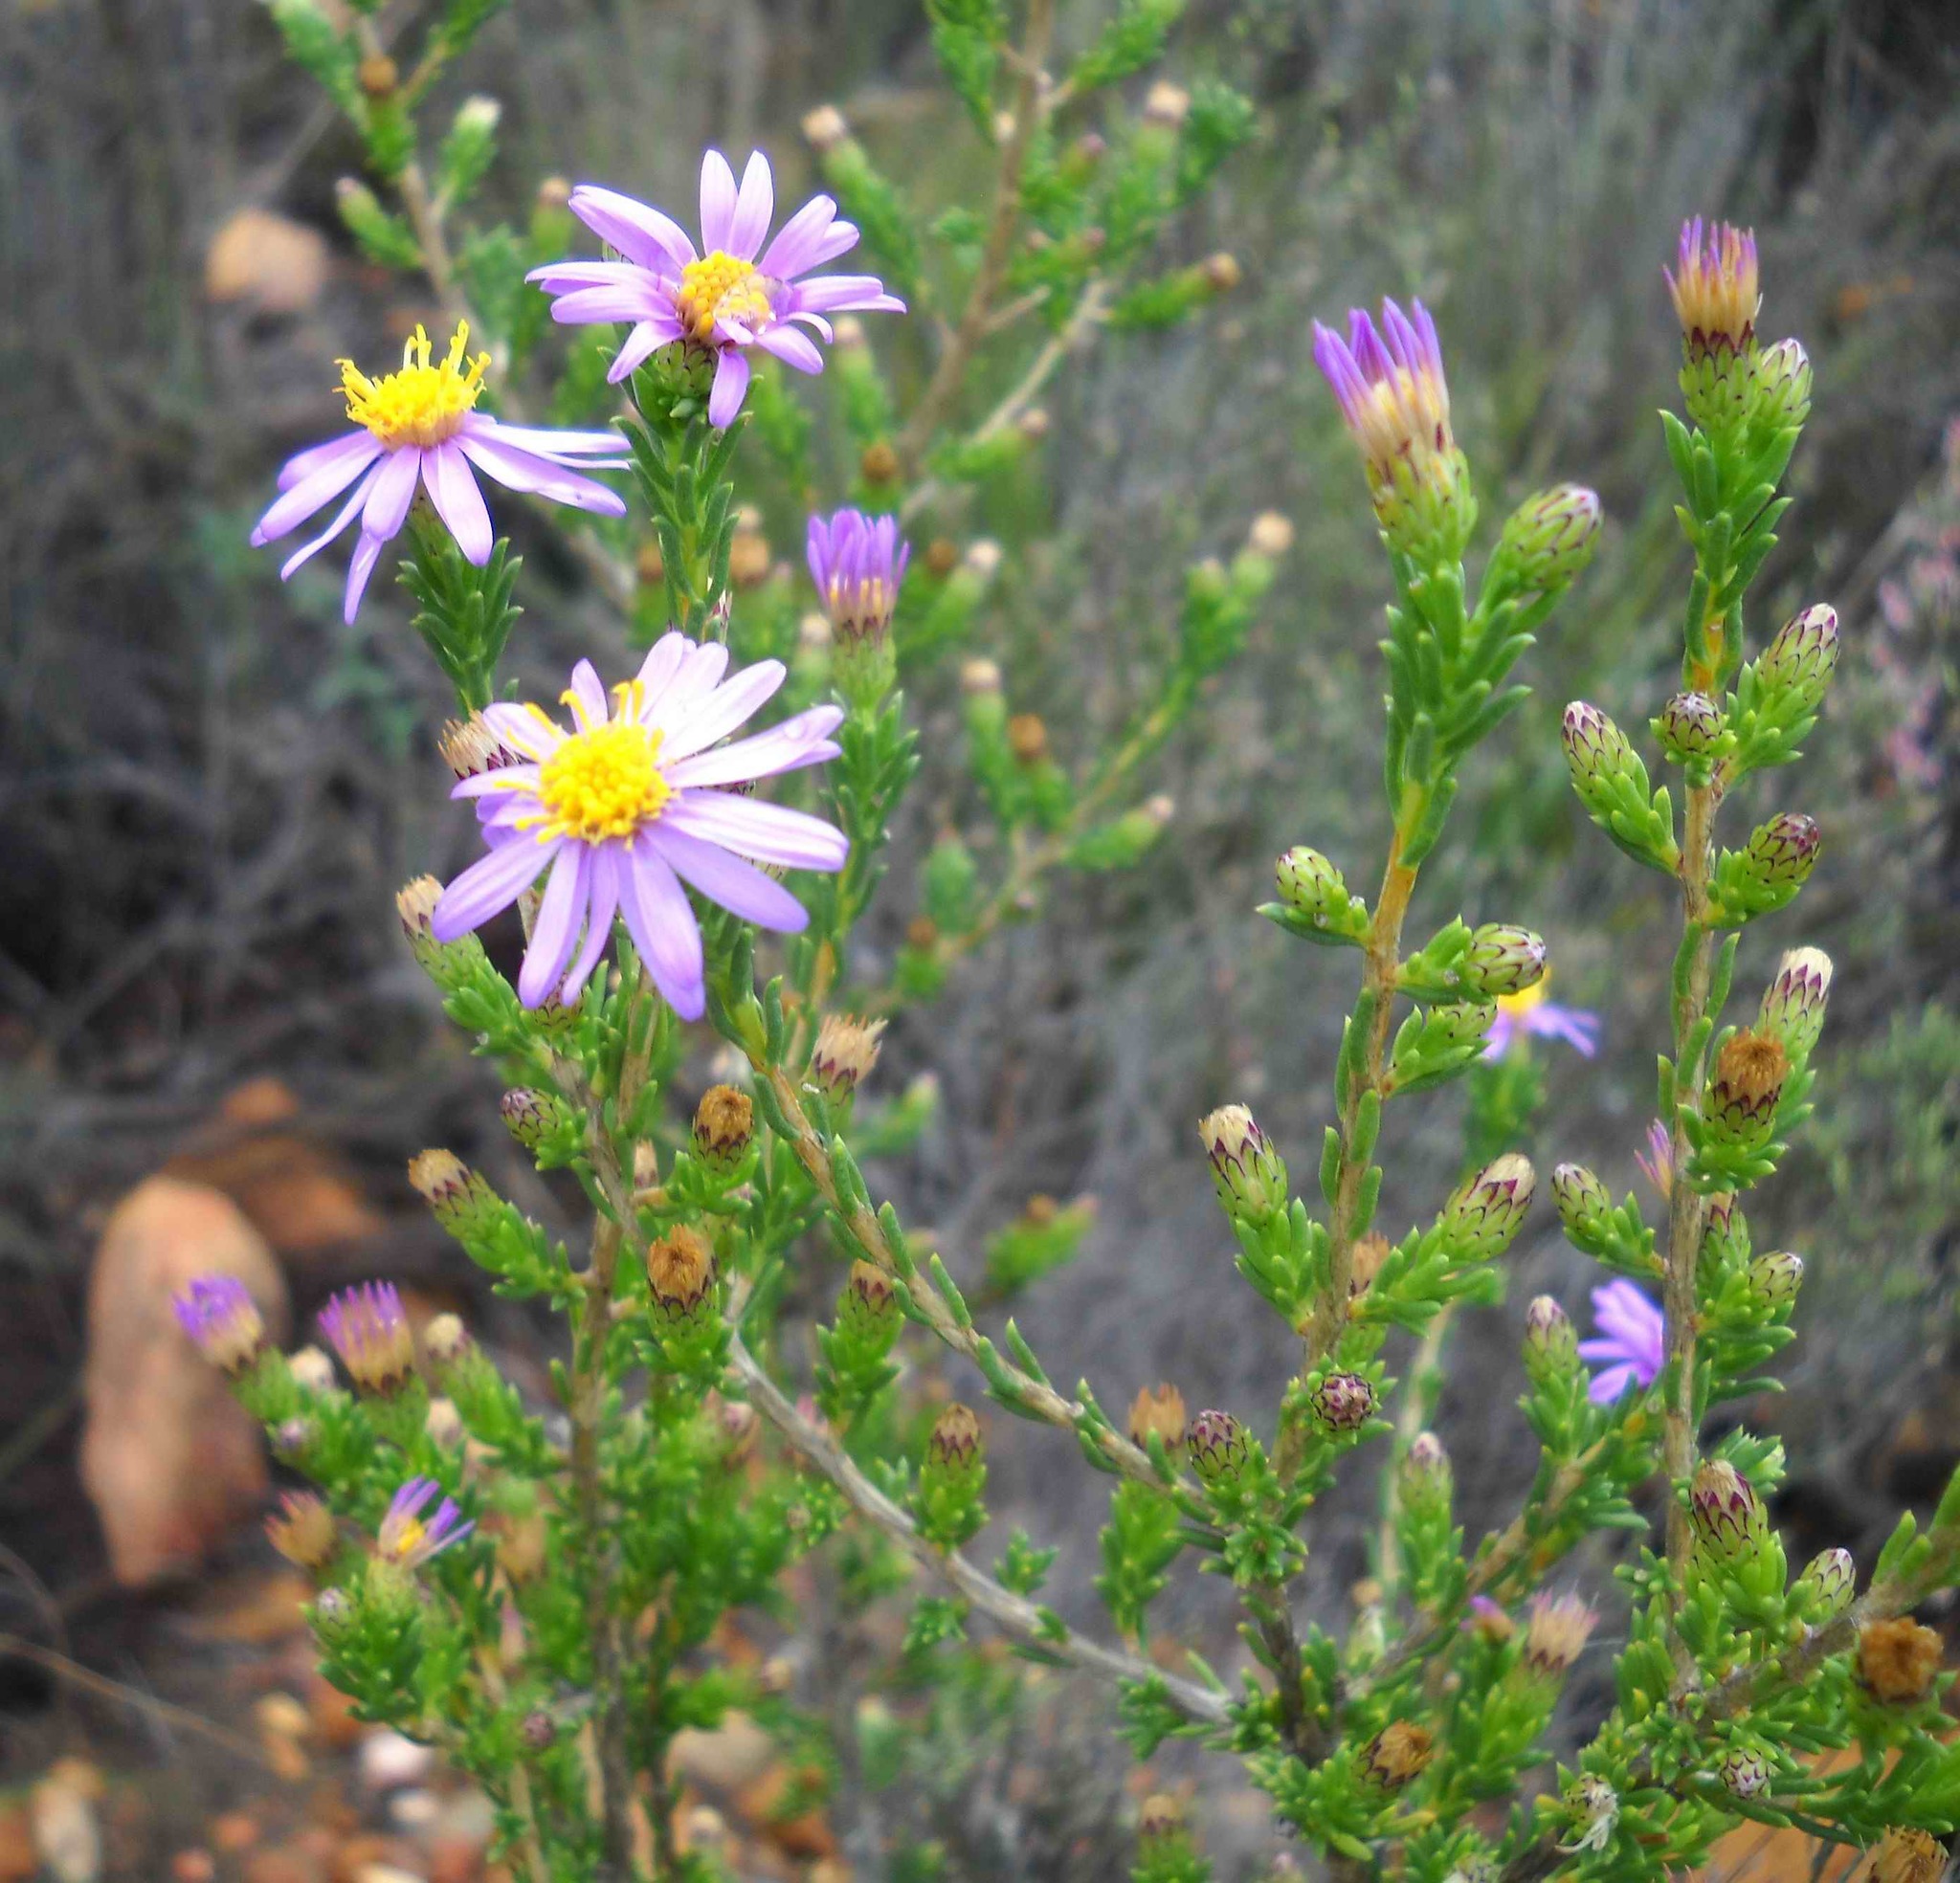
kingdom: Plantae
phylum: Tracheophyta
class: Magnoliopsida
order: Asterales
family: Asteraceae
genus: Felicia
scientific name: Felicia filifolia
